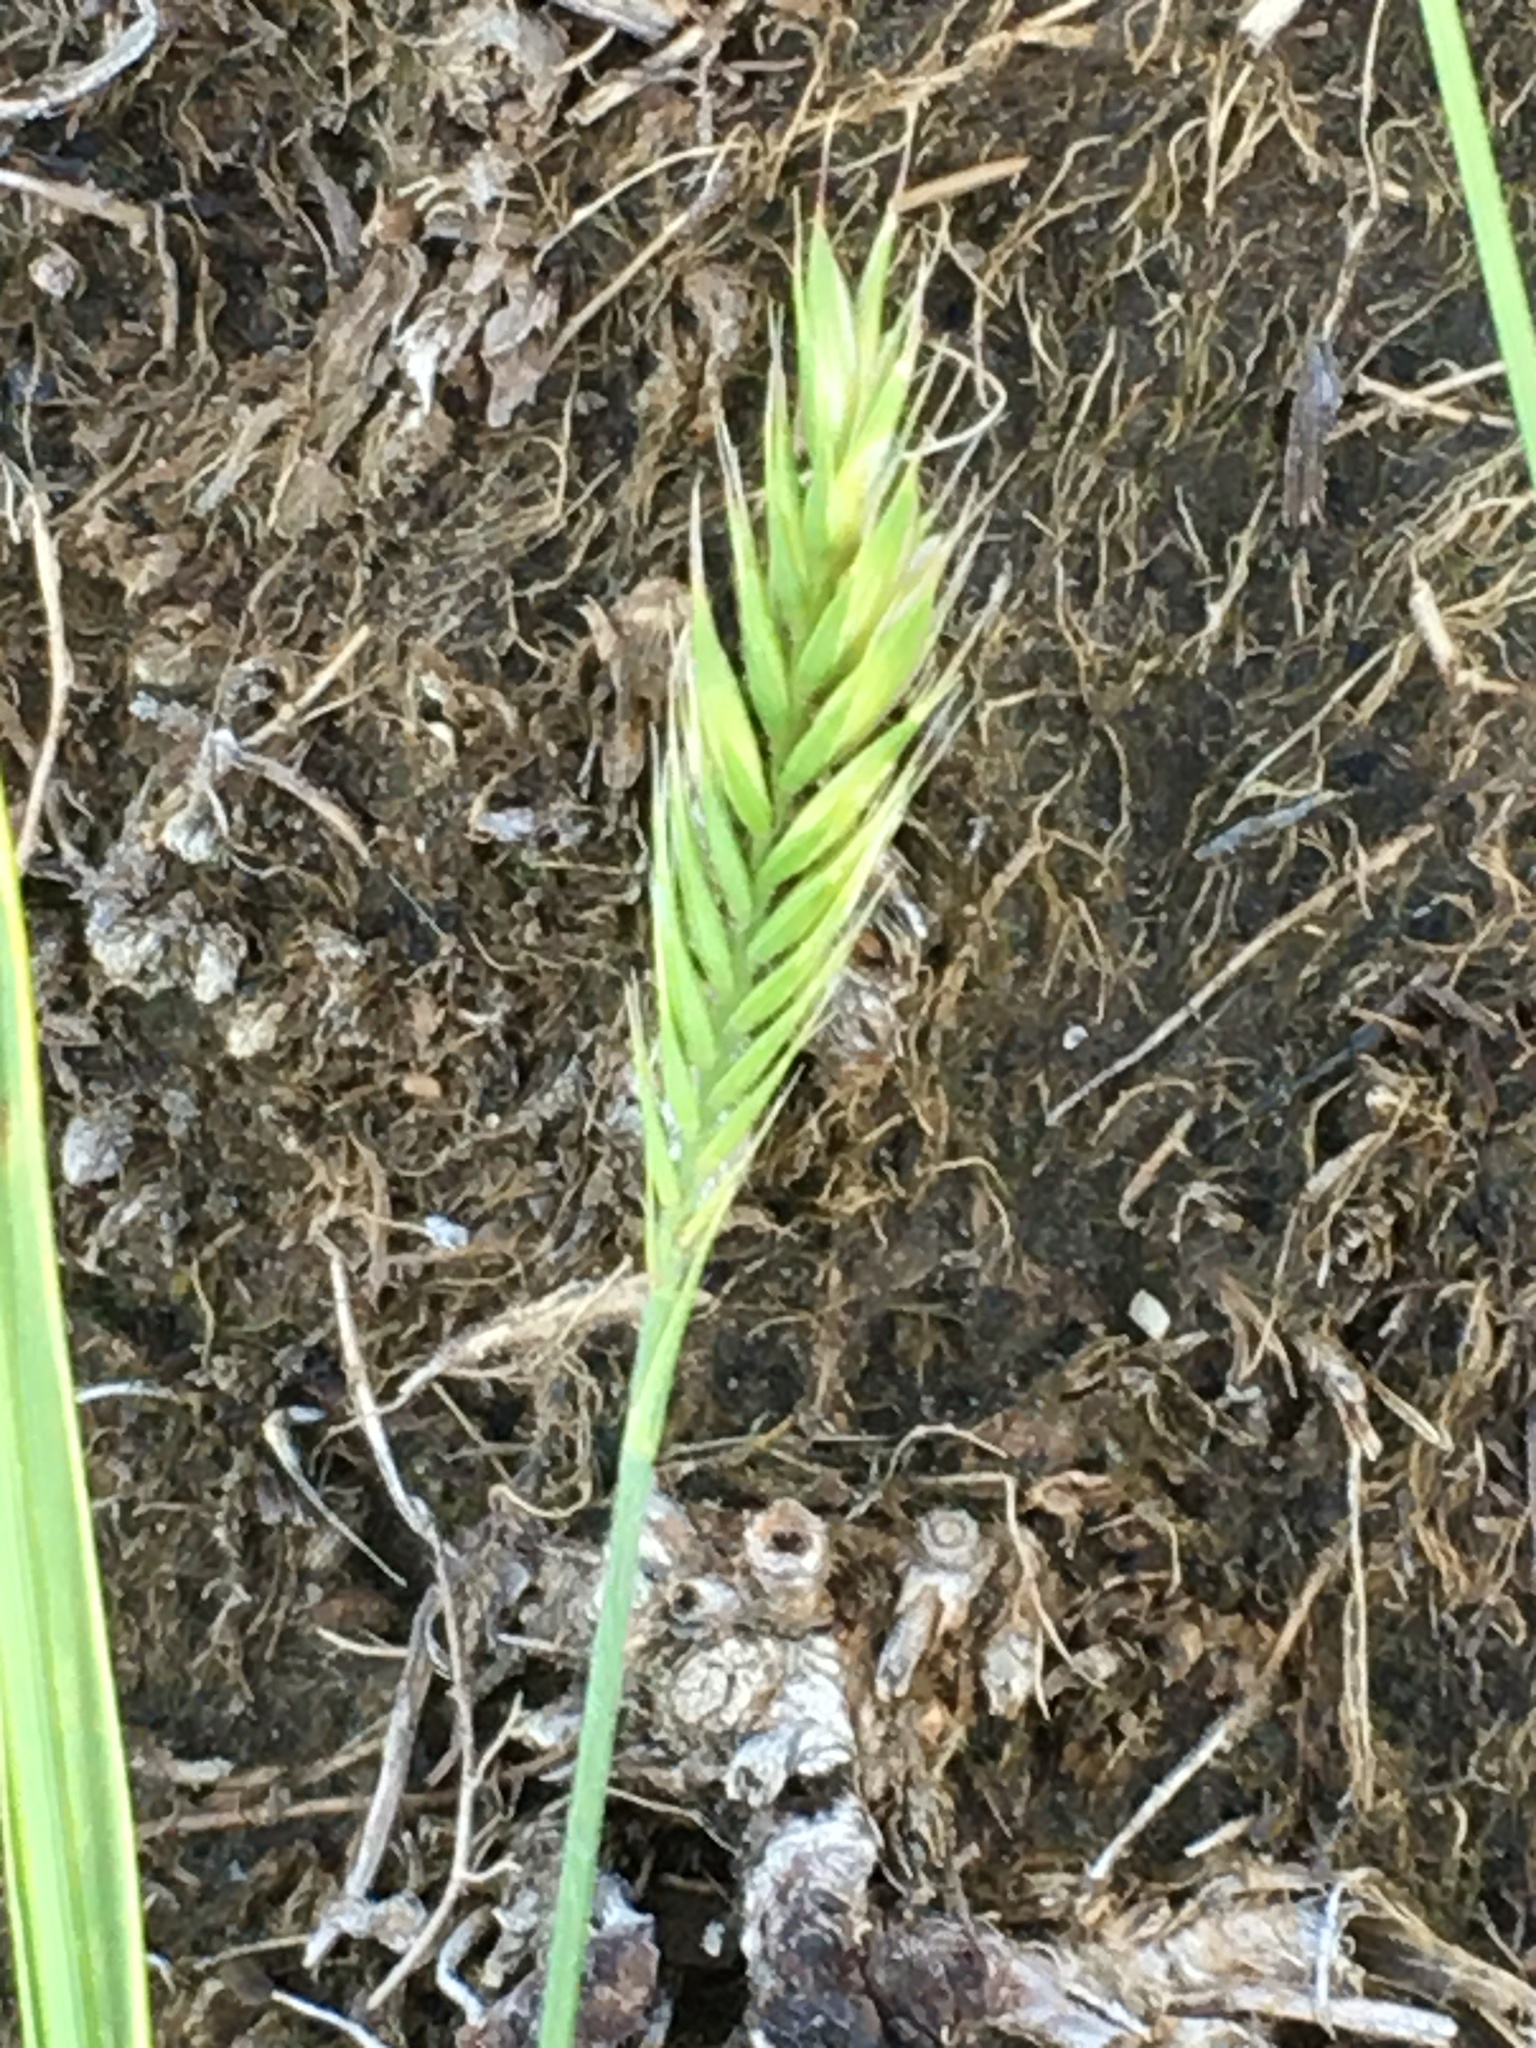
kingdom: Plantae
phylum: Tracheophyta
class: Liliopsida
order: Poales
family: Poaceae
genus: Agropyron
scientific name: Agropyron cristatum
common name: Crested wheatgrass
